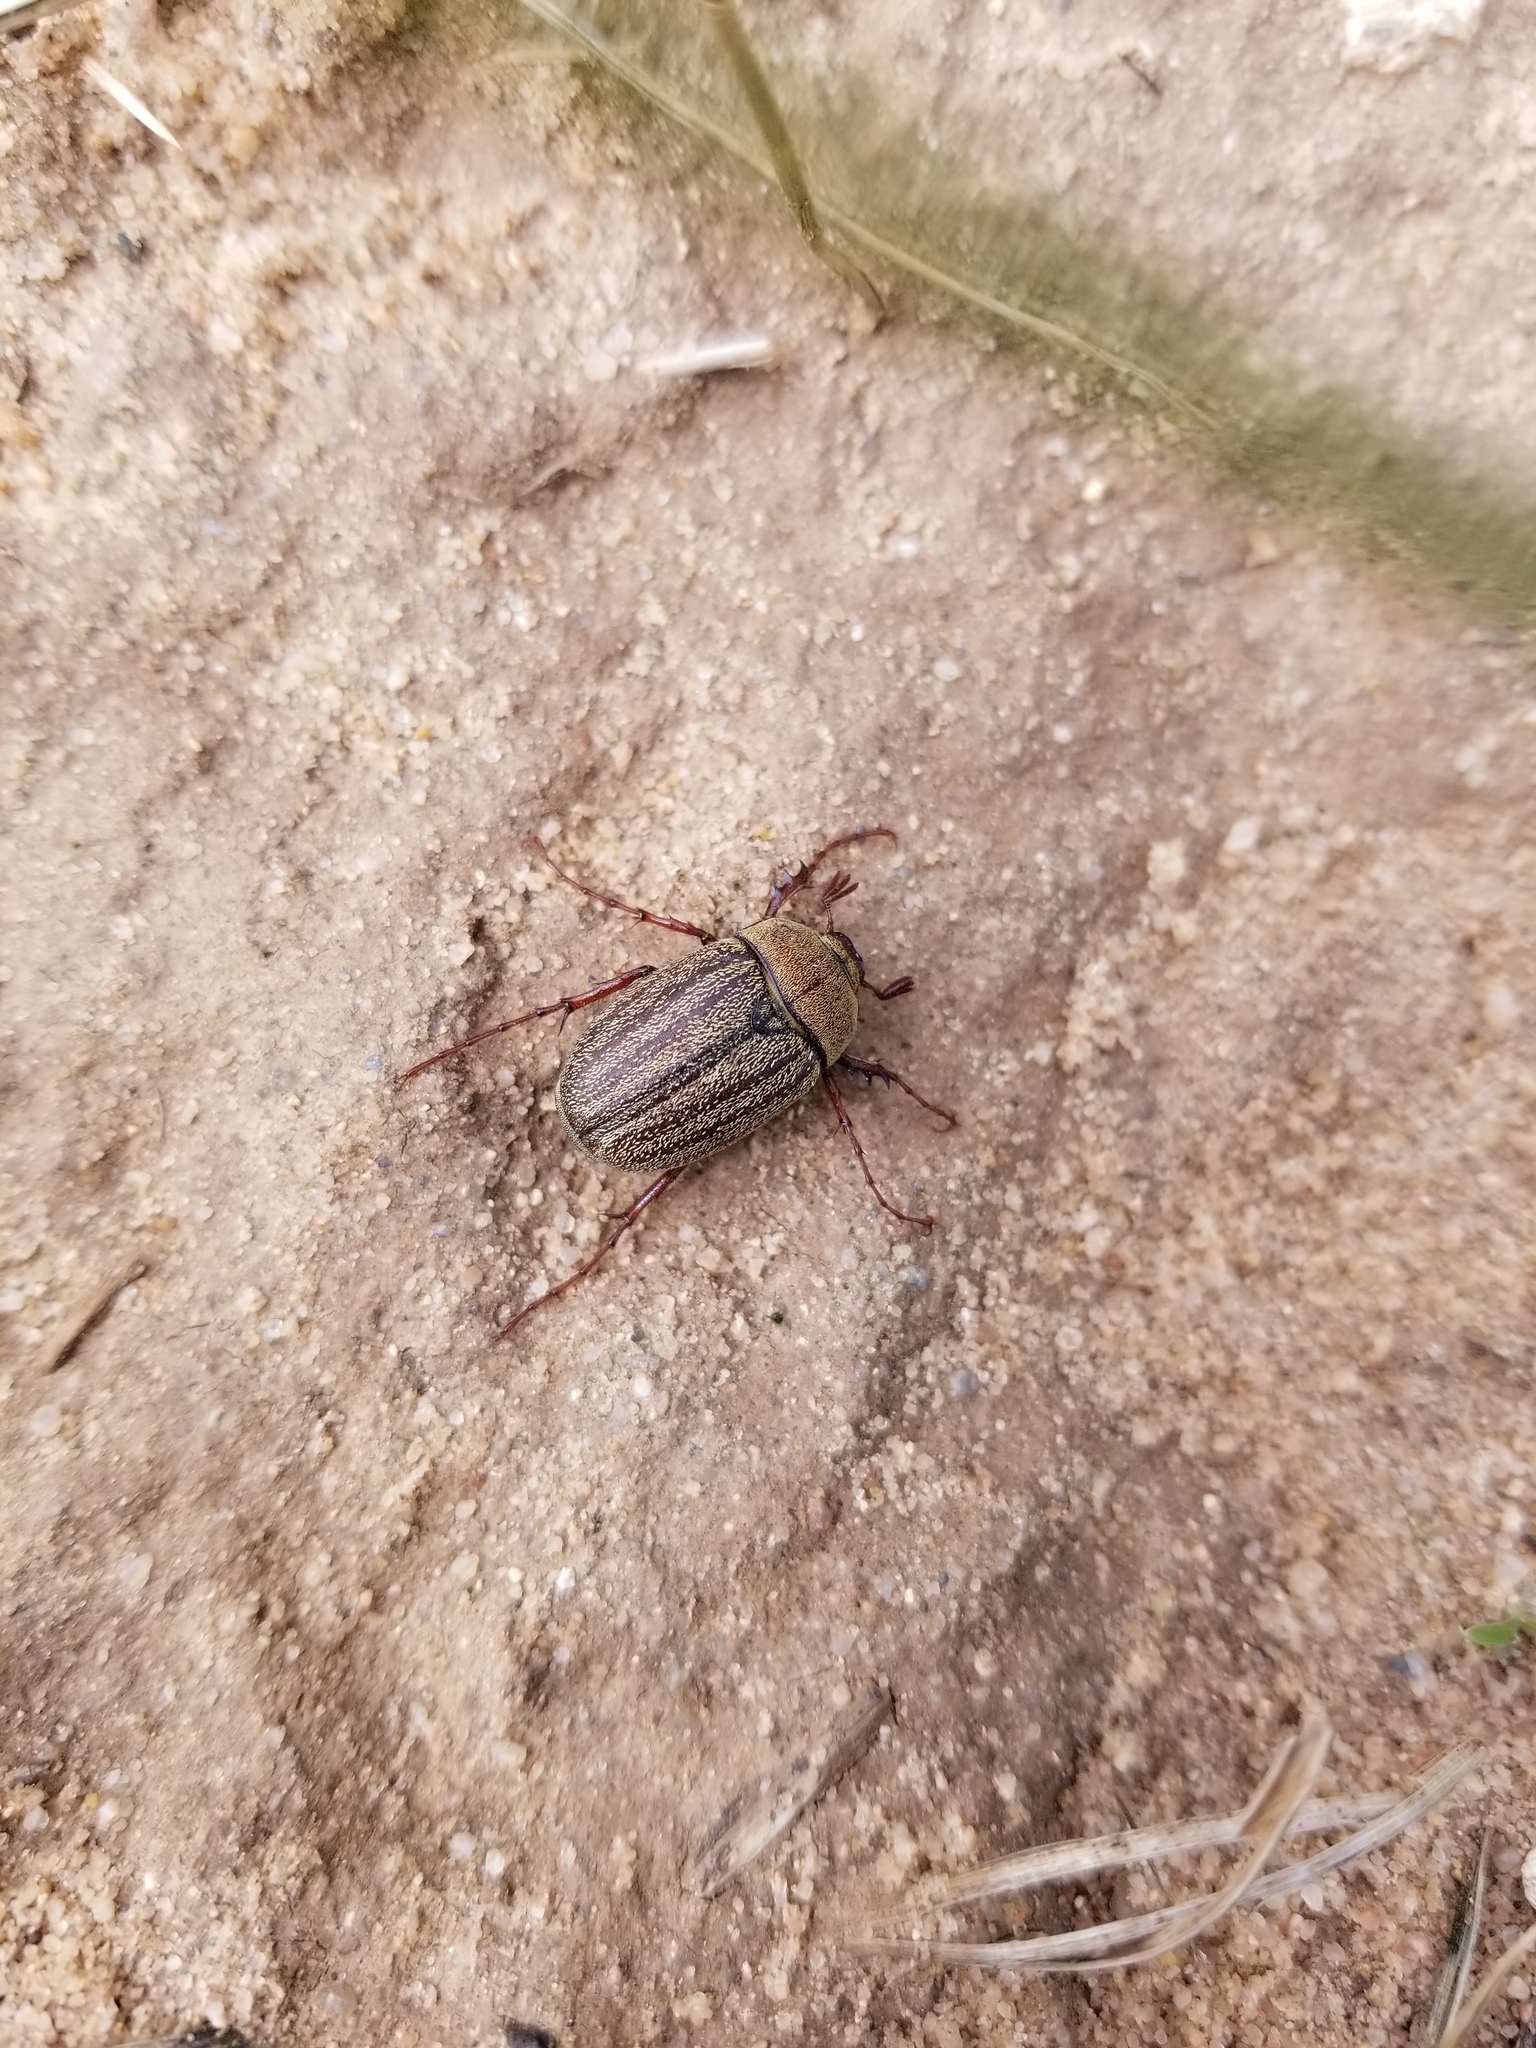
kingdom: Animalia
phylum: Arthropoda
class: Insecta
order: Coleoptera
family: Scarabaeidae
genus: Phyllophaga
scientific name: Phyllophaga lanceolata
